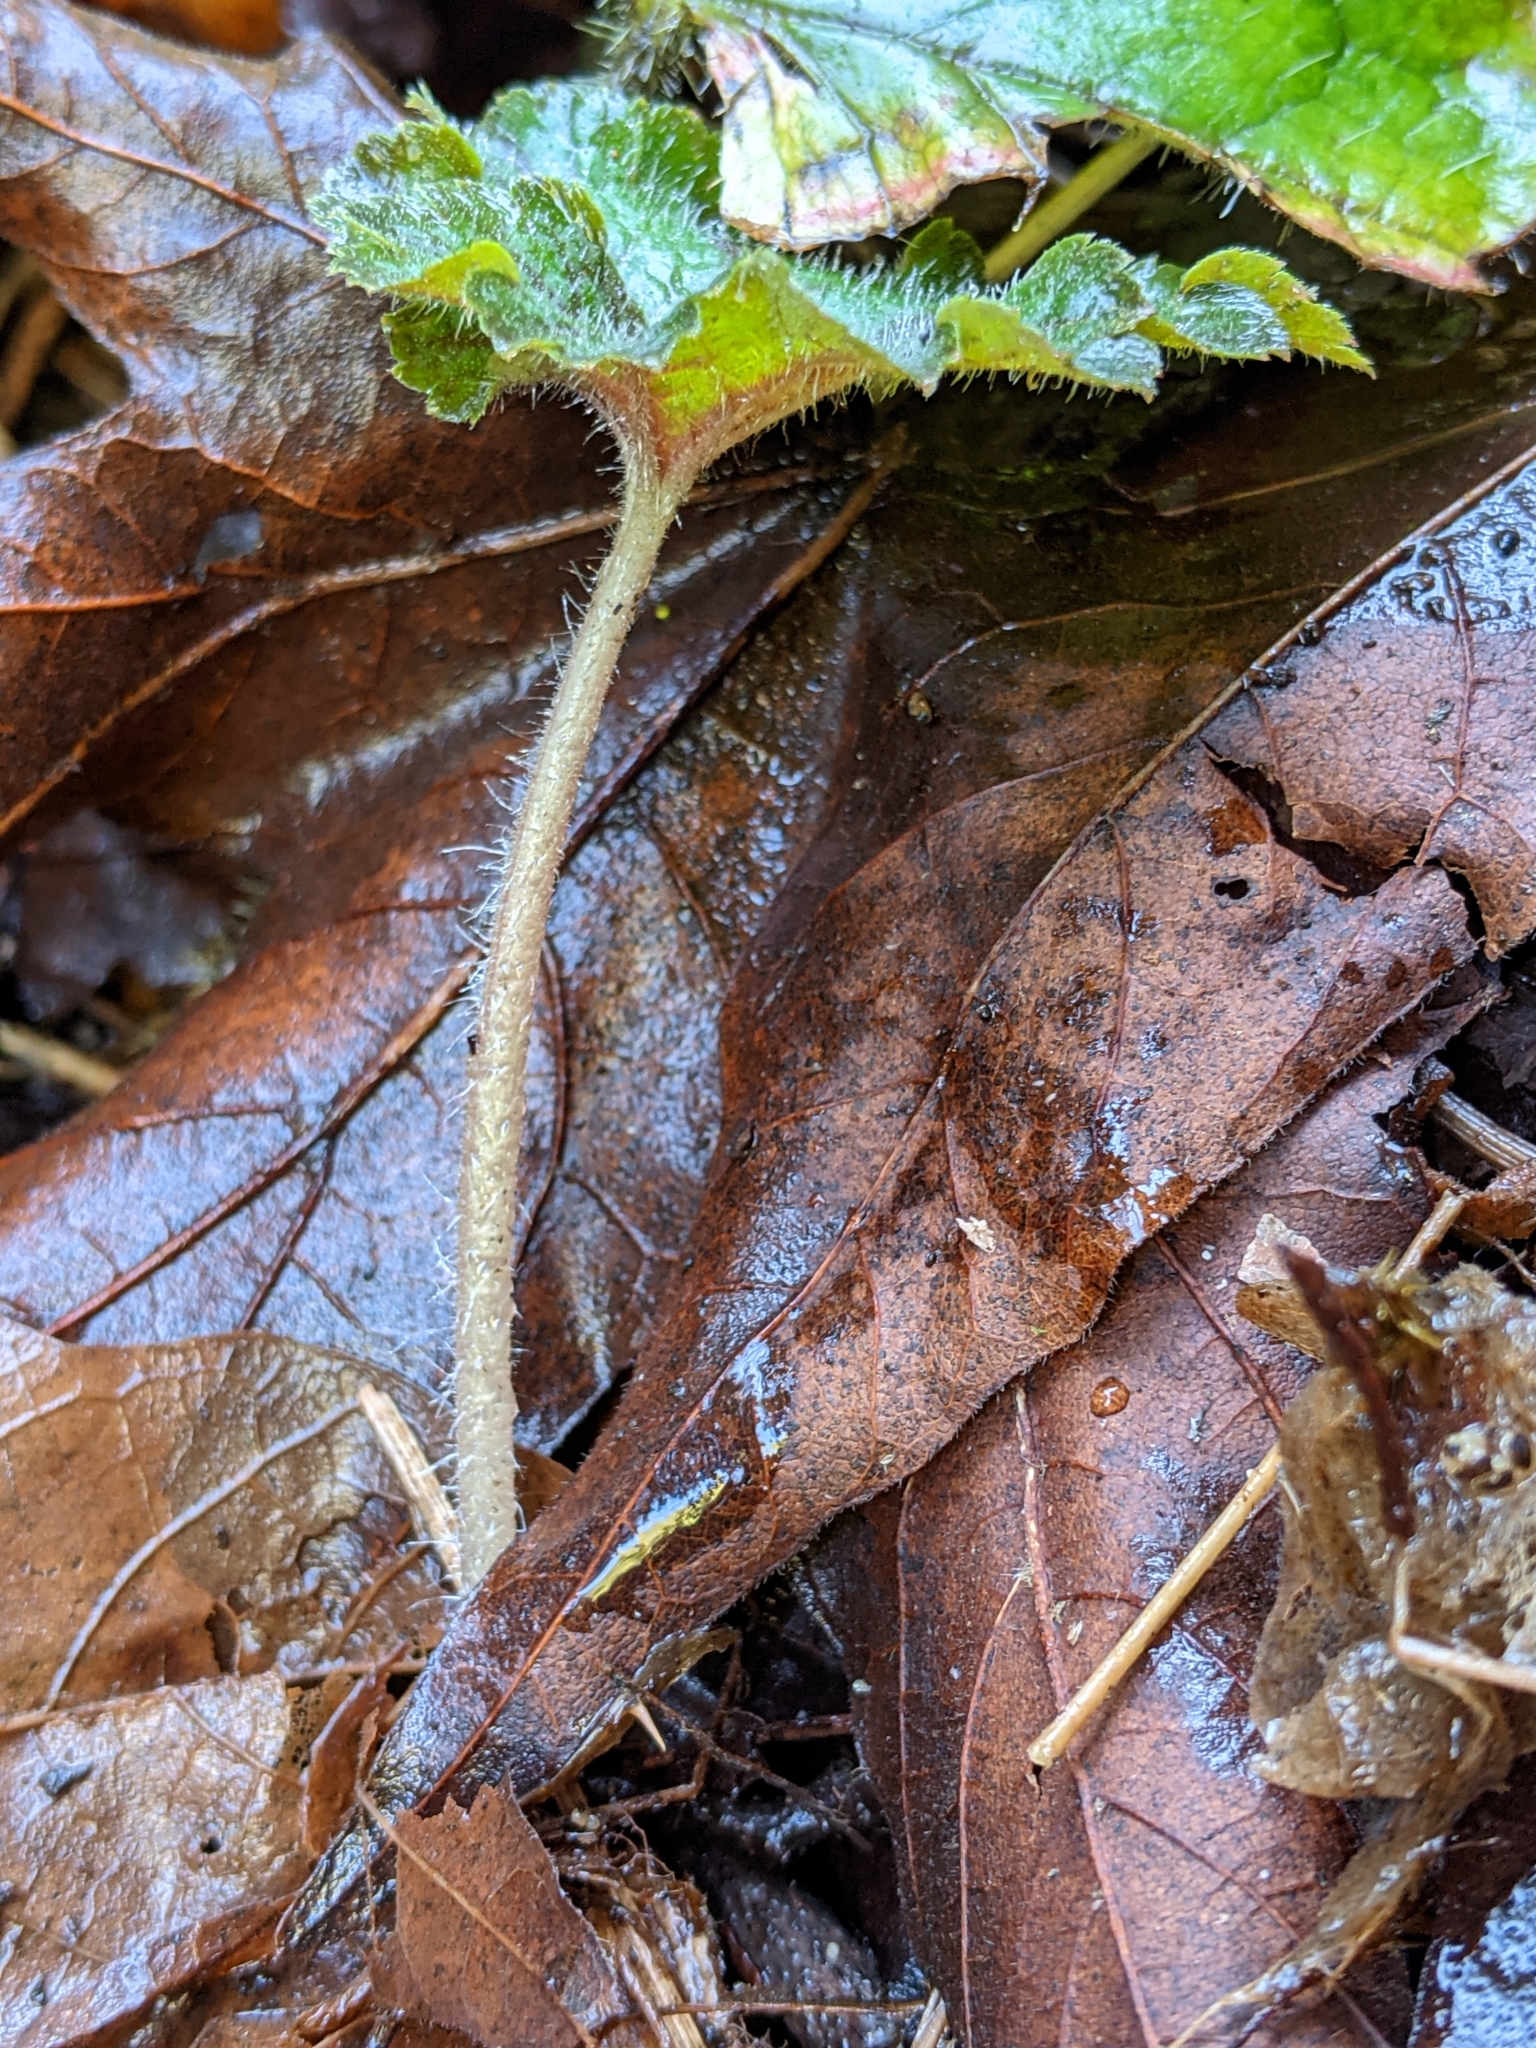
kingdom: Plantae
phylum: Tracheophyta
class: Magnoliopsida
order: Saxifragales
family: Saxifragaceae
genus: Tellima
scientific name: Tellima grandiflora
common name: Fringecups
